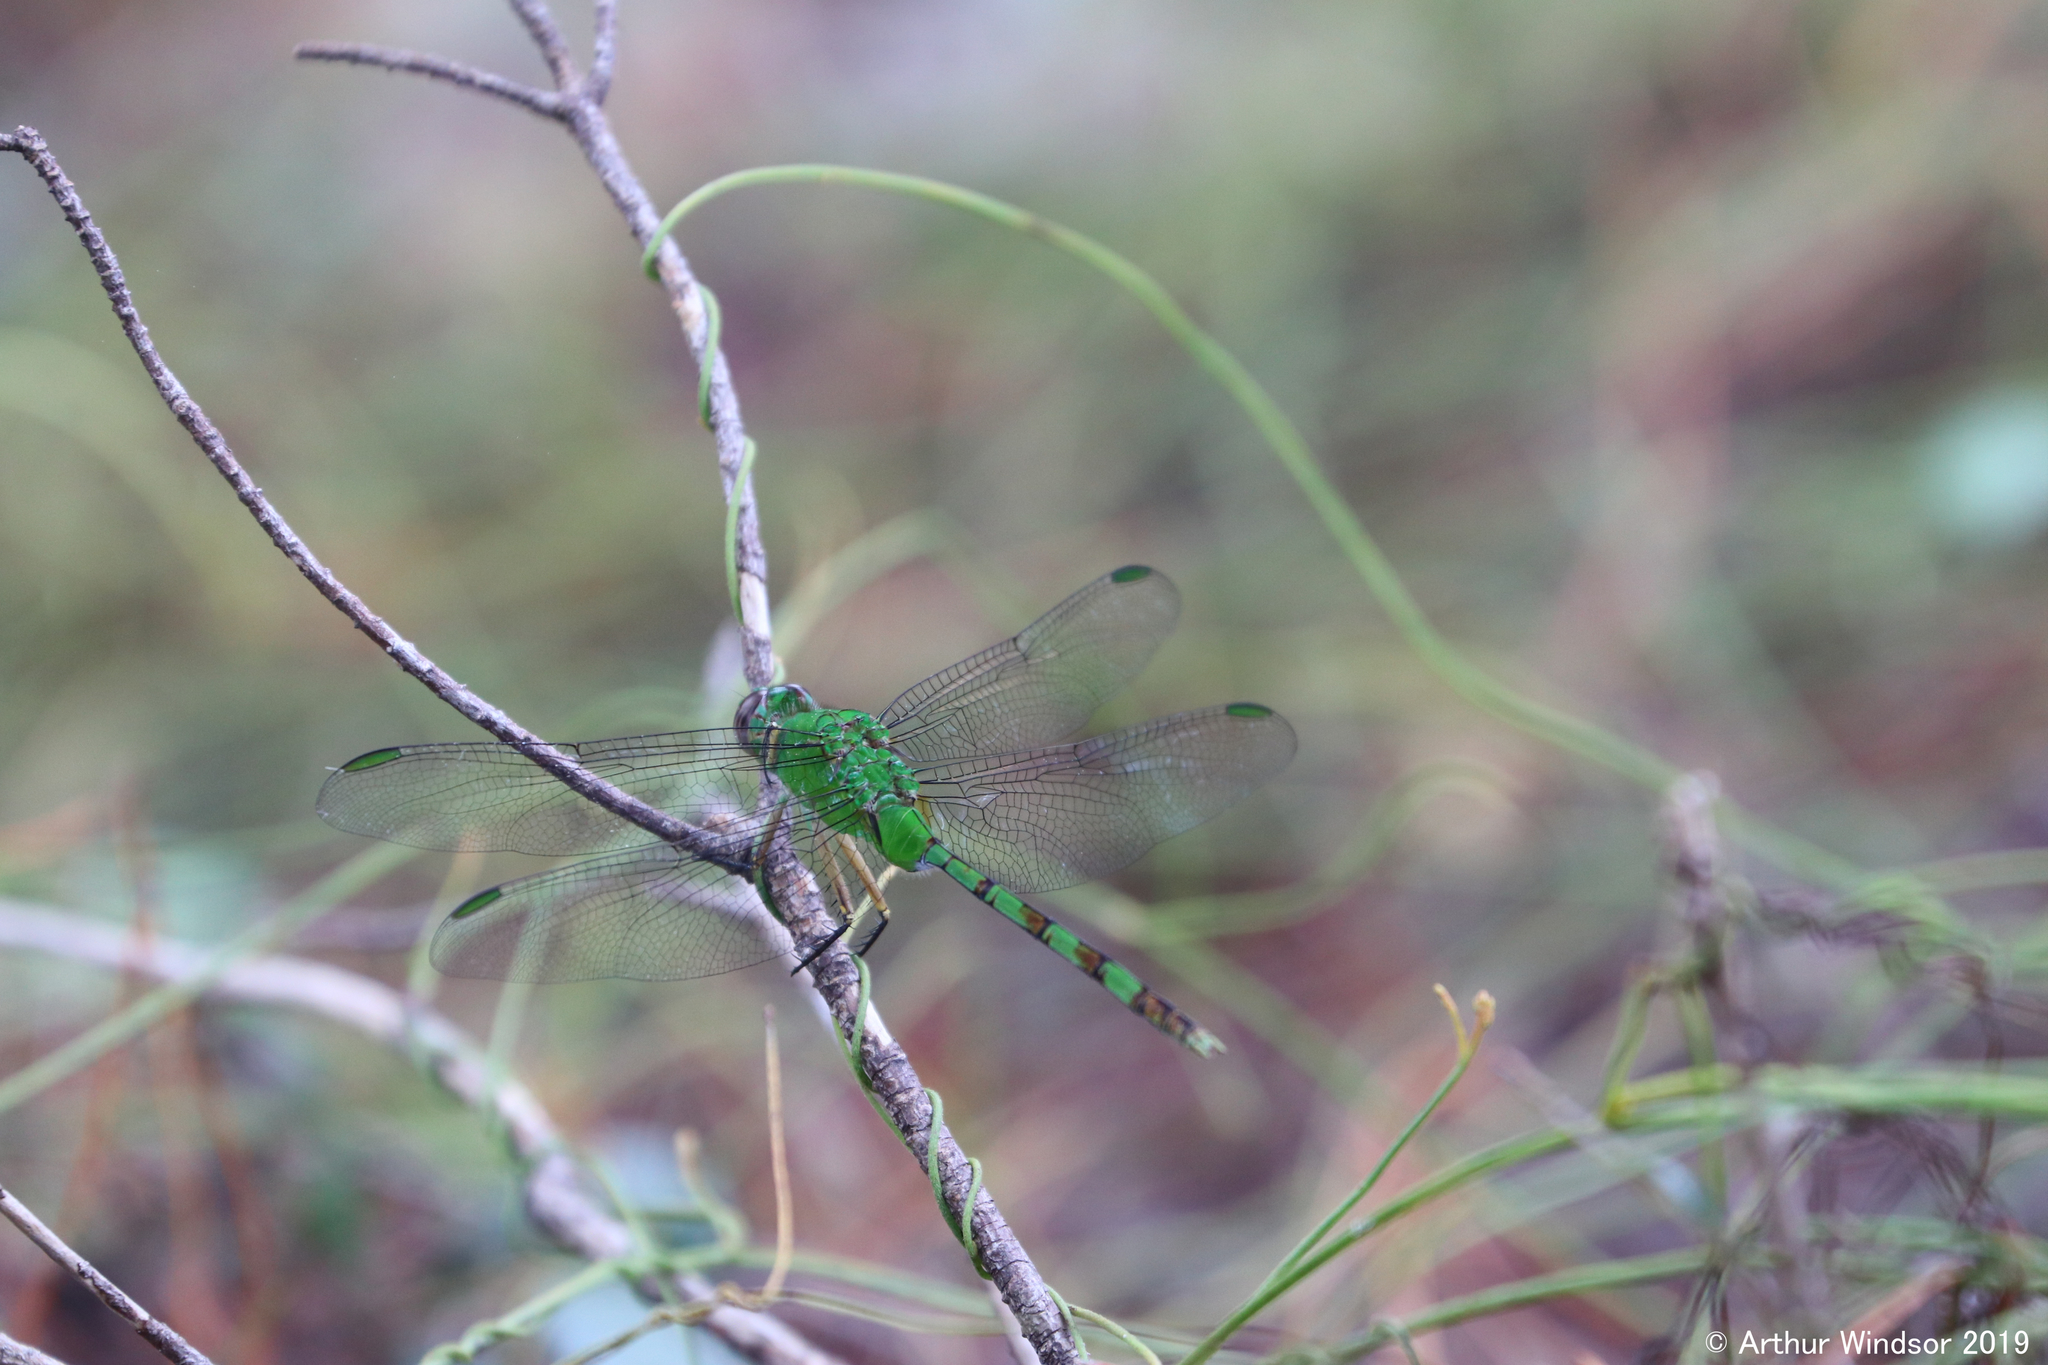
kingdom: Animalia
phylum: Arthropoda
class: Insecta
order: Odonata
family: Libellulidae
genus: Erythemis
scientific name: Erythemis vesiculosa
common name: Great pondhawk
